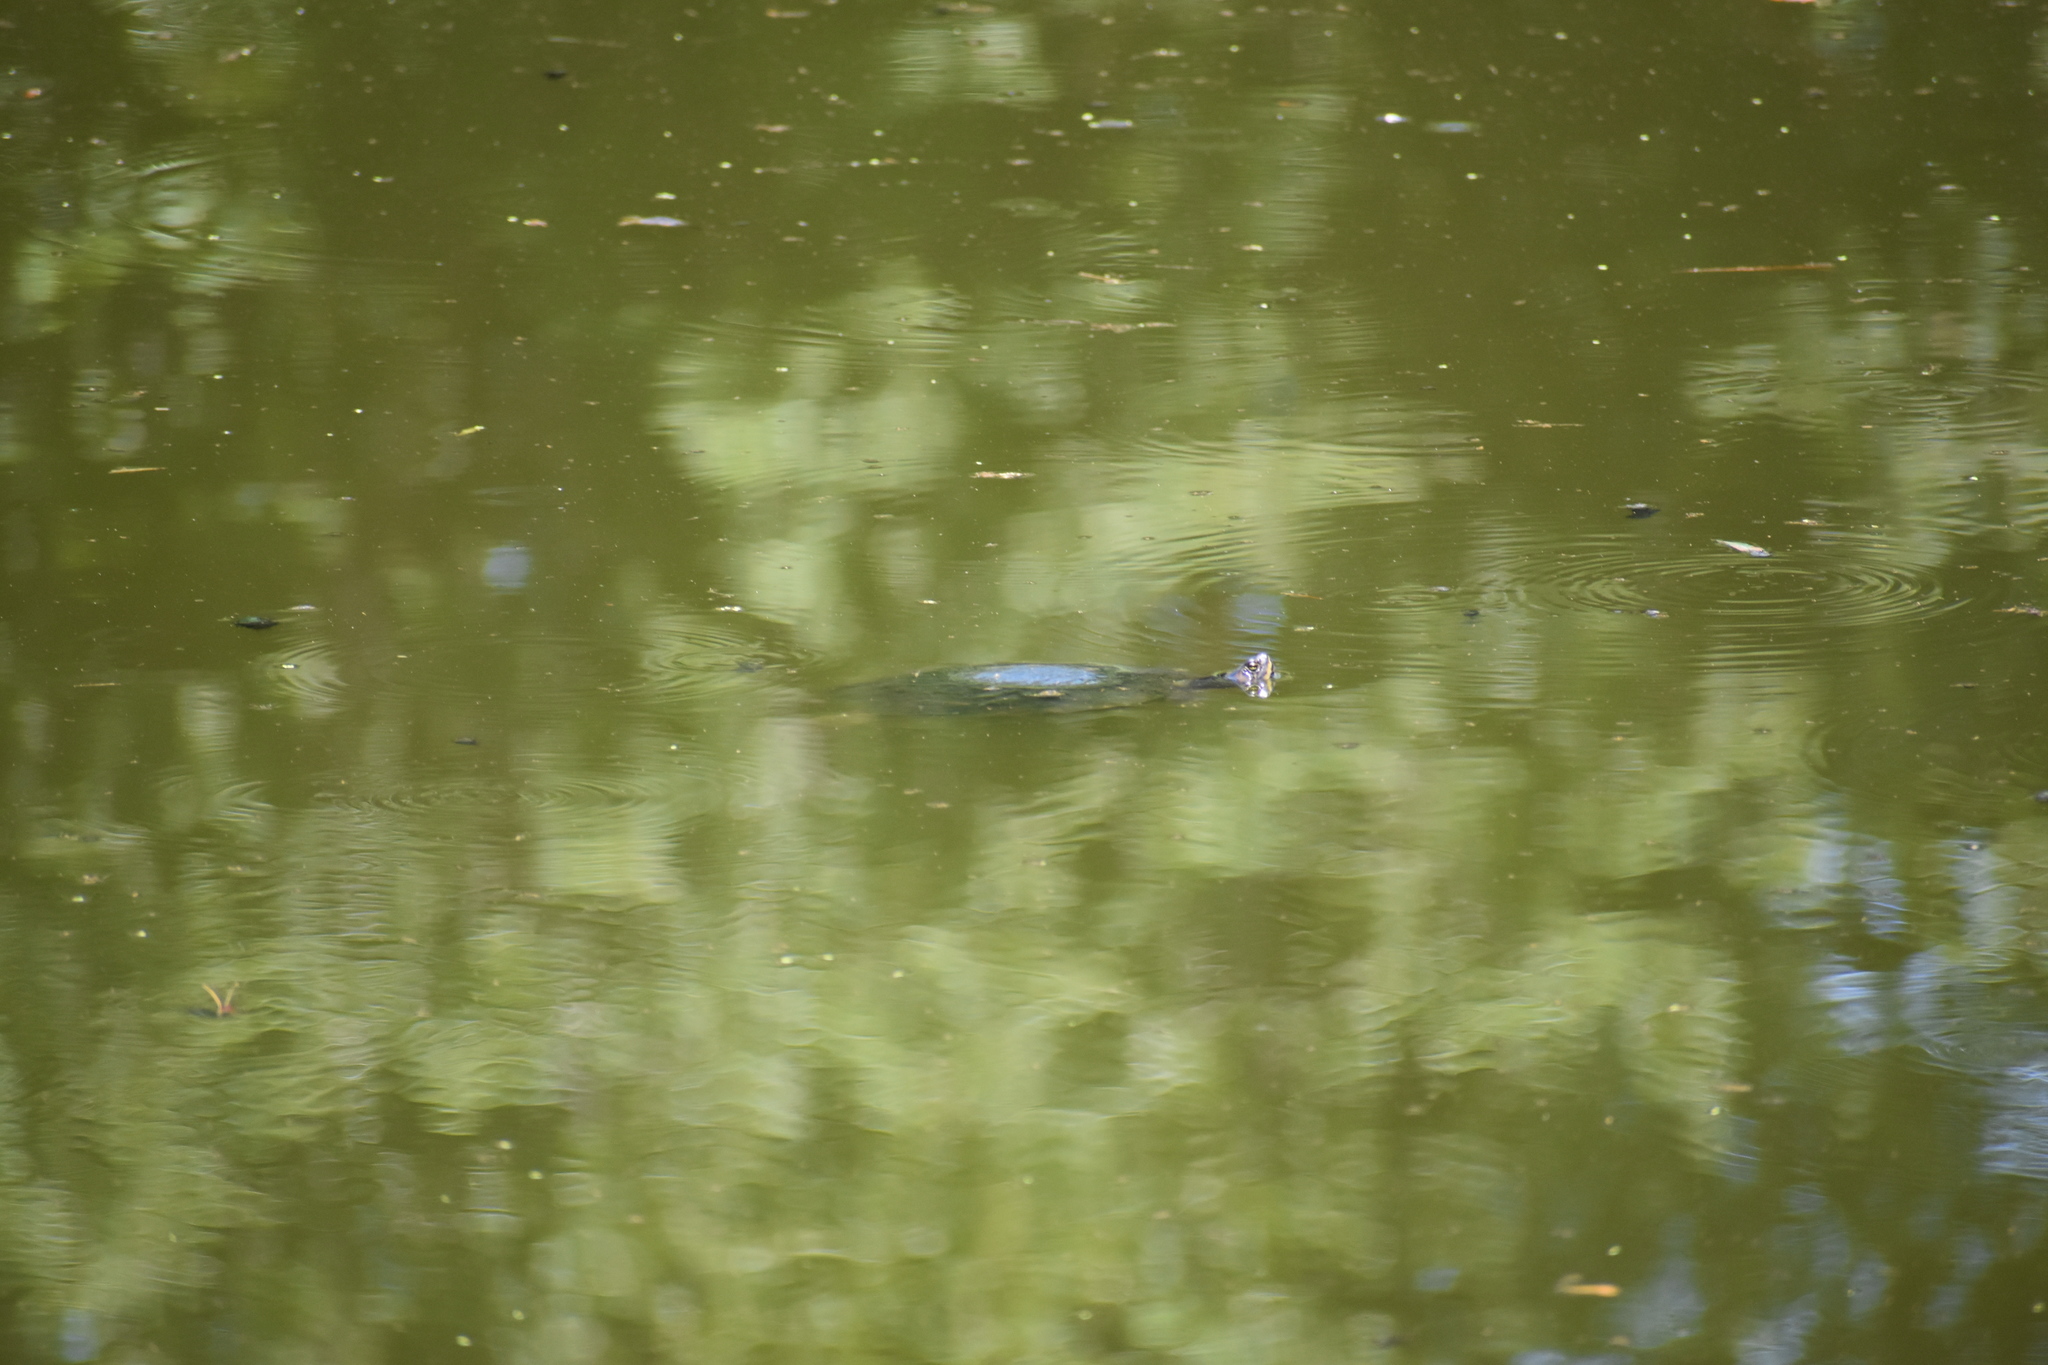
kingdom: Animalia
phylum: Chordata
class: Testudines
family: Emydidae
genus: Trachemys
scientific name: Trachemys scripta
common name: Slider
